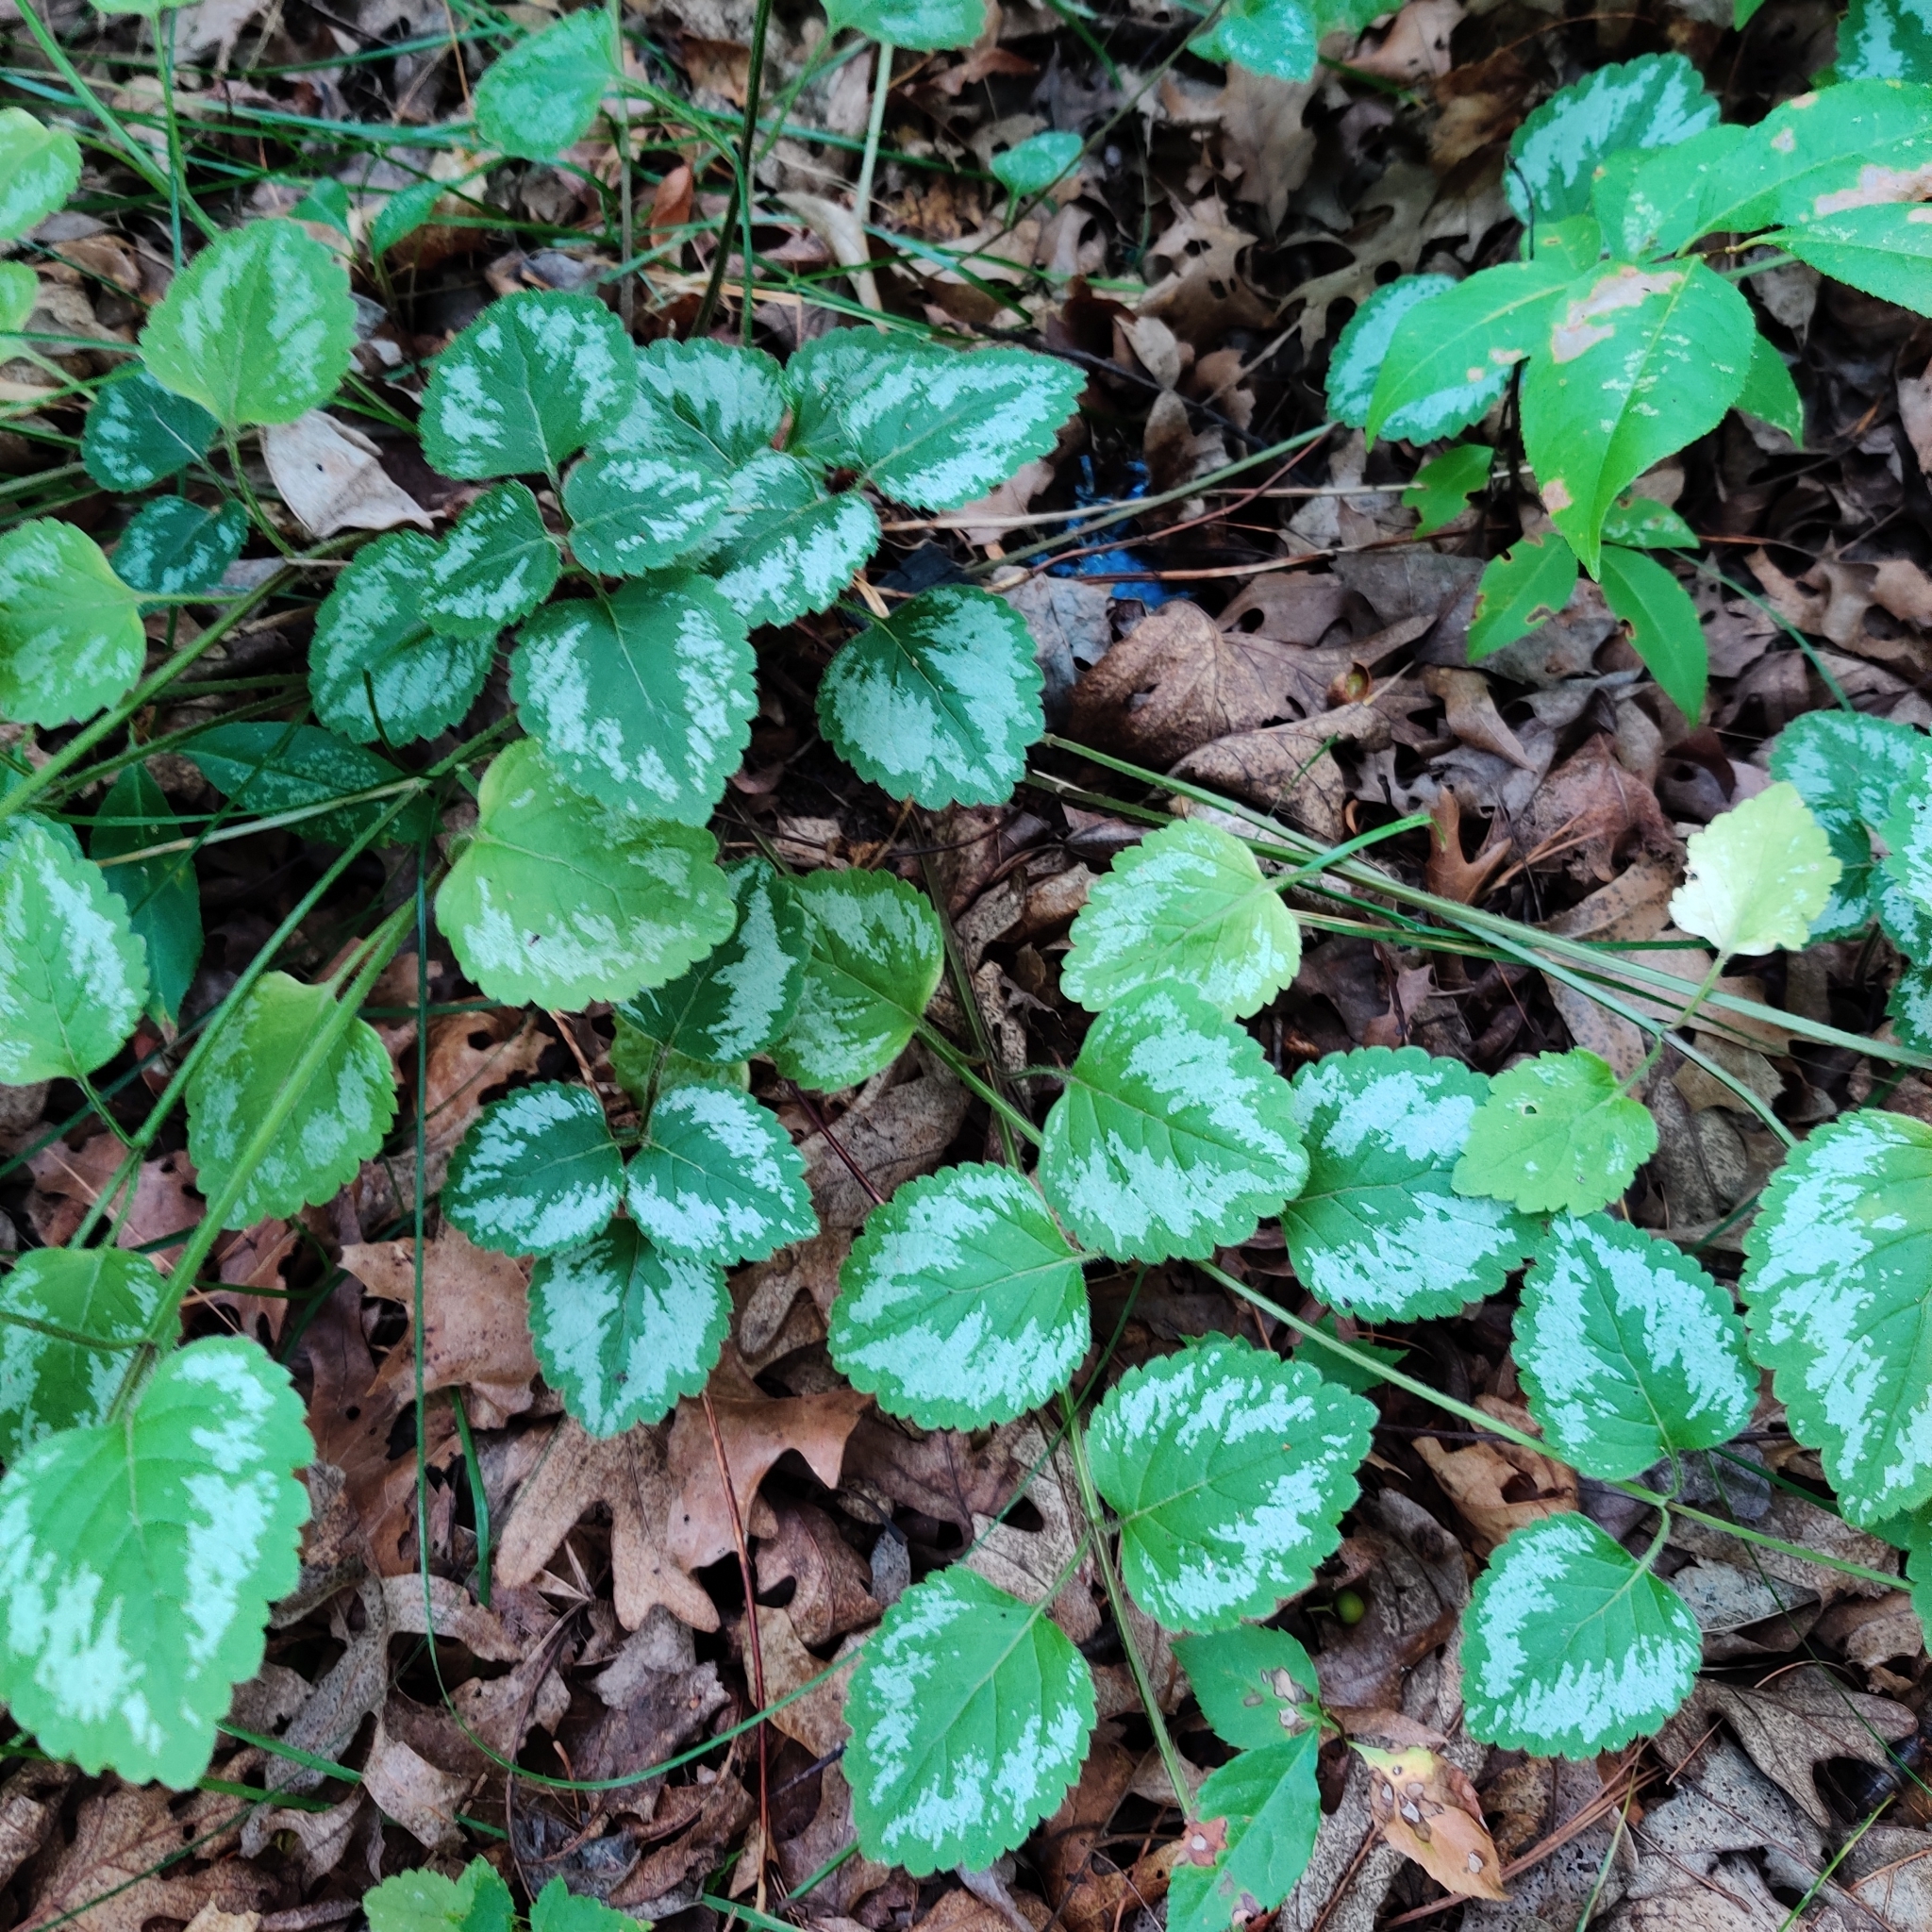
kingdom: Plantae
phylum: Tracheophyta
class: Magnoliopsida
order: Lamiales
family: Lamiaceae
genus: Lamium
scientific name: Lamium galeobdolon
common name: Yellow archangel
